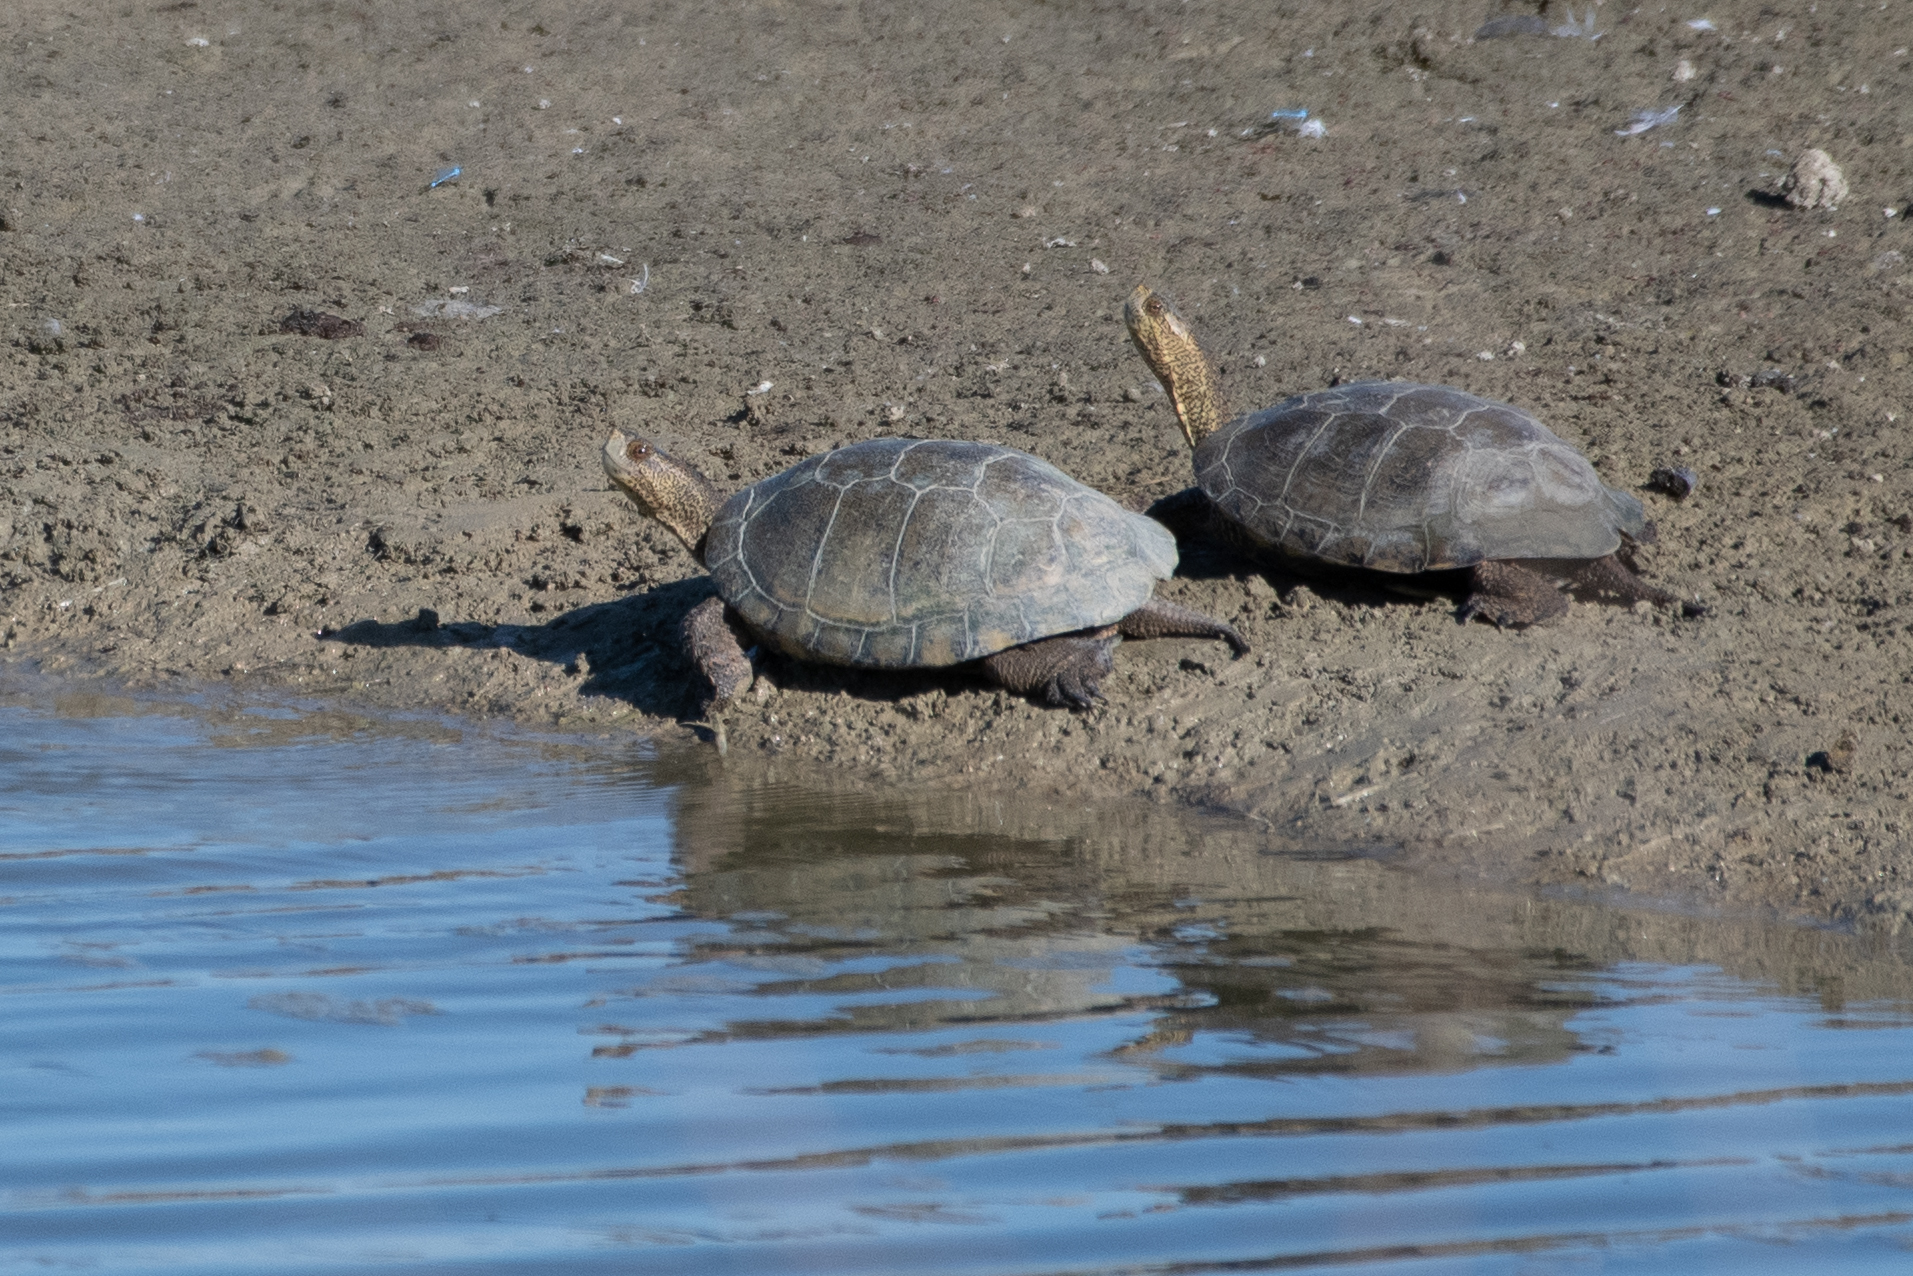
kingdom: Animalia
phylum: Chordata
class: Testudines
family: Emydidae
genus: Actinemys
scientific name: Actinemys marmorata
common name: Western pond turtle
